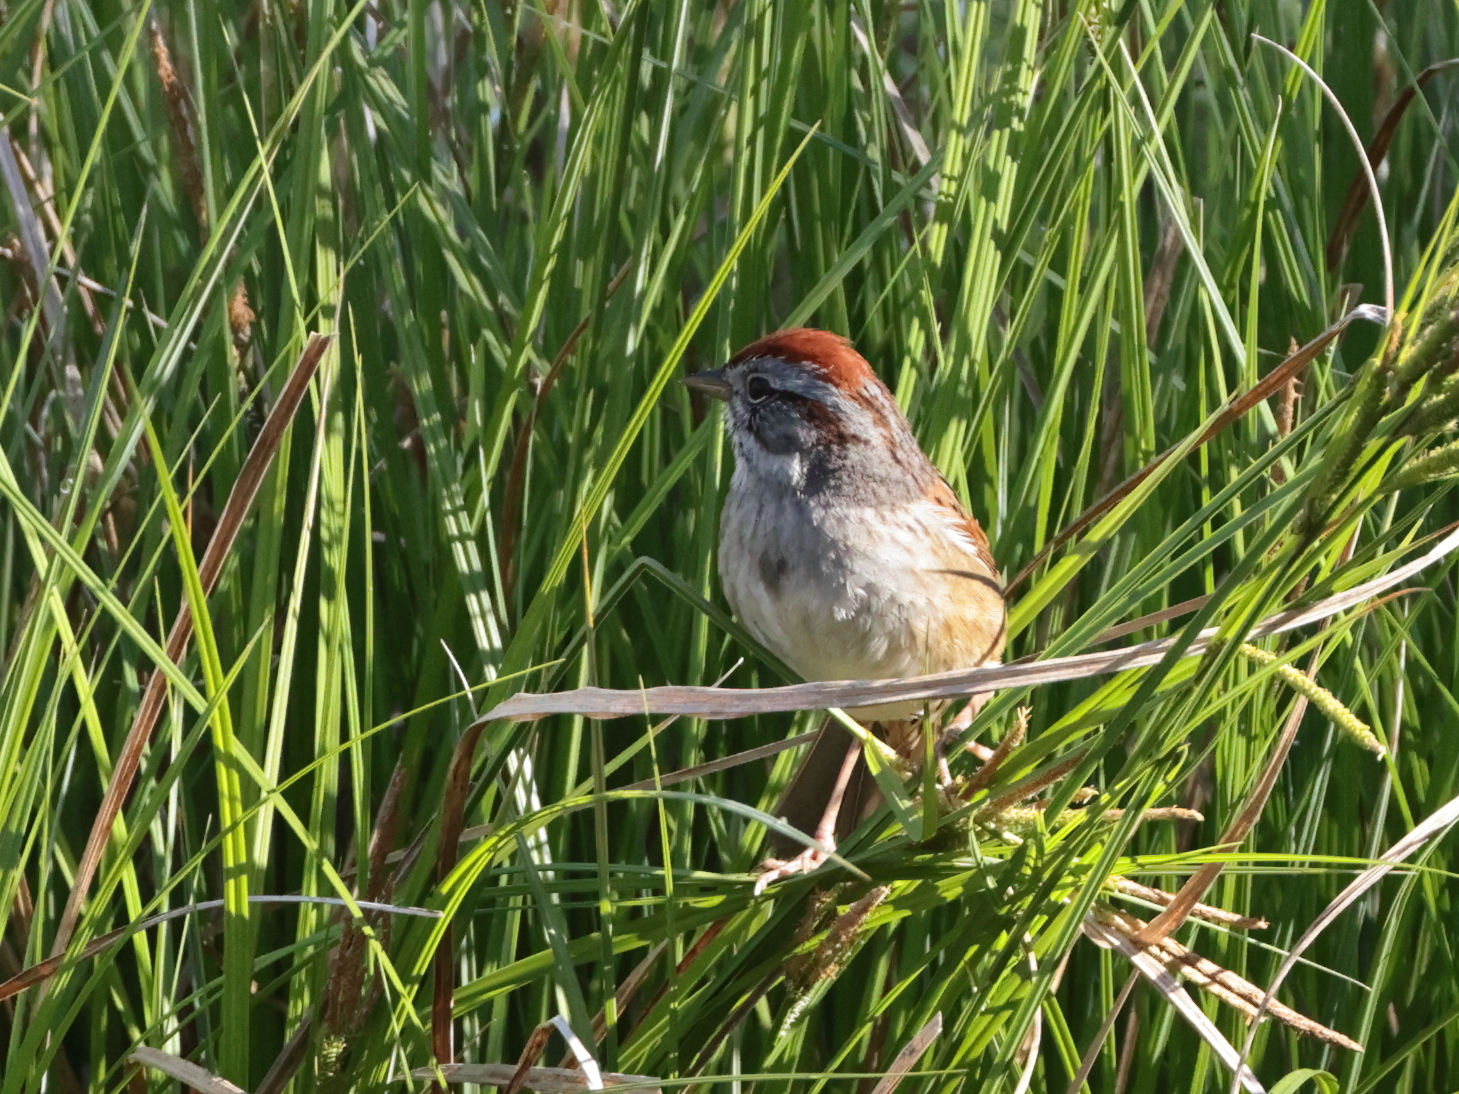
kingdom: Animalia
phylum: Chordata
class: Aves
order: Passeriformes
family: Passerellidae
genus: Melospiza
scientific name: Melospiza georgiana
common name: Swamp sparrow
